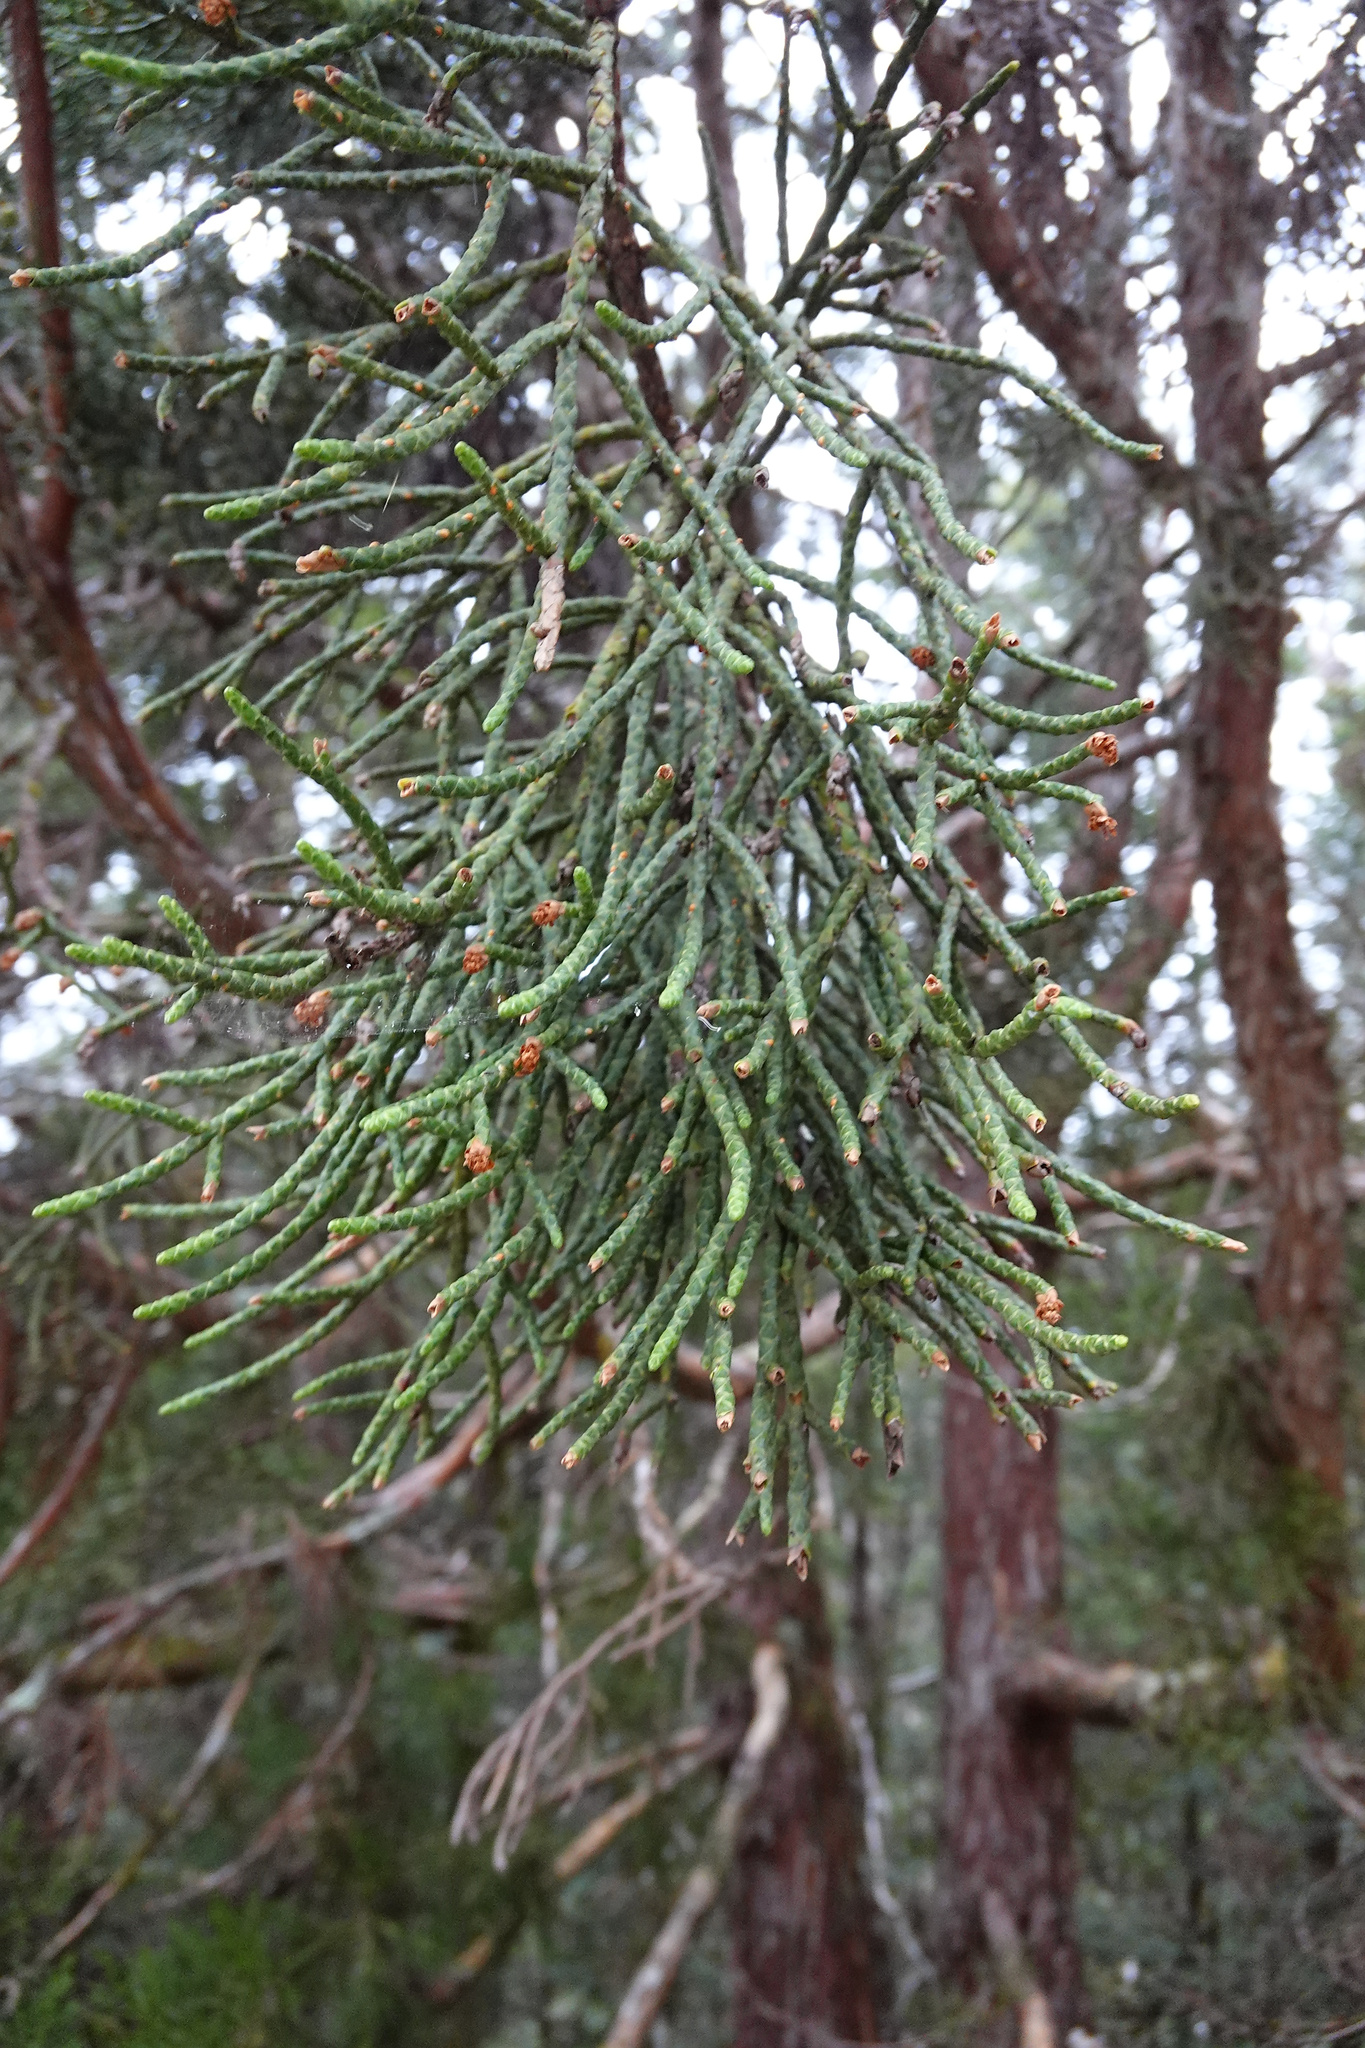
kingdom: Plantae
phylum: Tracheophyta
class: Pinopsida
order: Pinales
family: Cupressaceae
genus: Athrotaxis
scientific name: Athrotaxis cupressoides
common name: Tasmanian pencil pine
